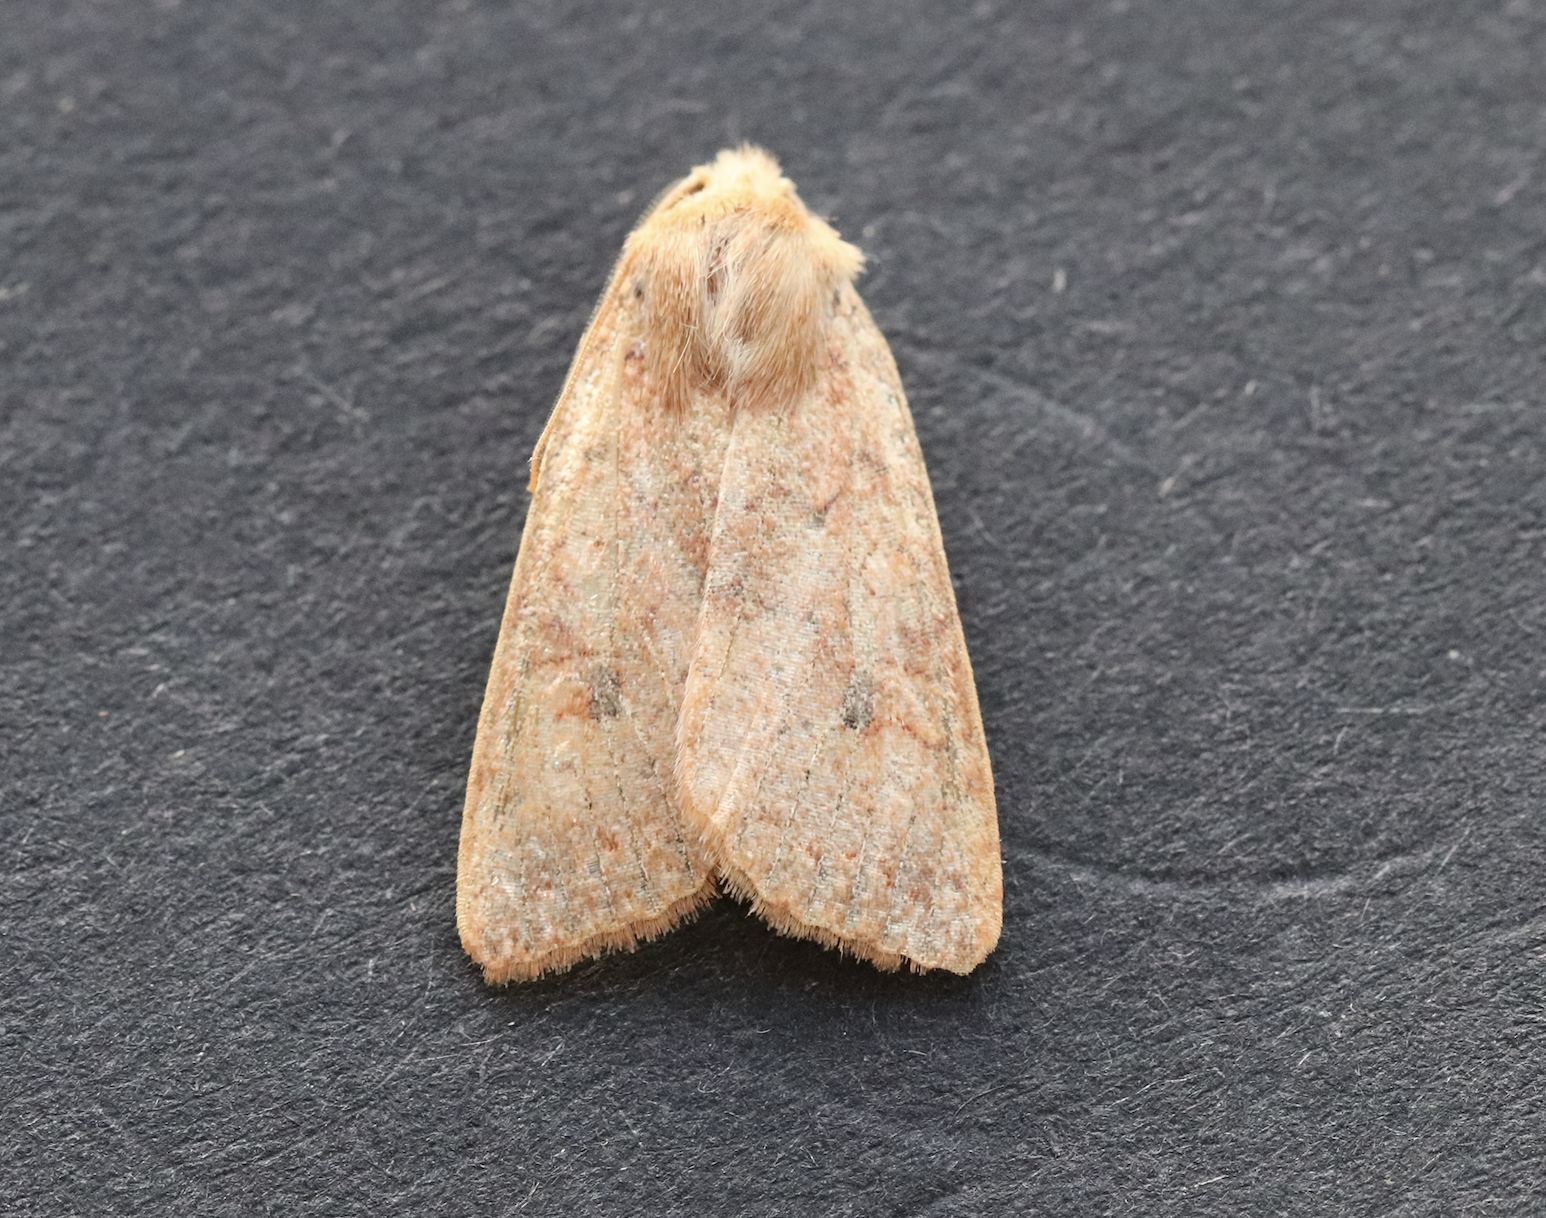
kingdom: Animalia
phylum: Arthropoda
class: Insecta
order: Lepidoptera
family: Noctuidae
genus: Sunira
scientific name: Sunira circellaris
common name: Brick
